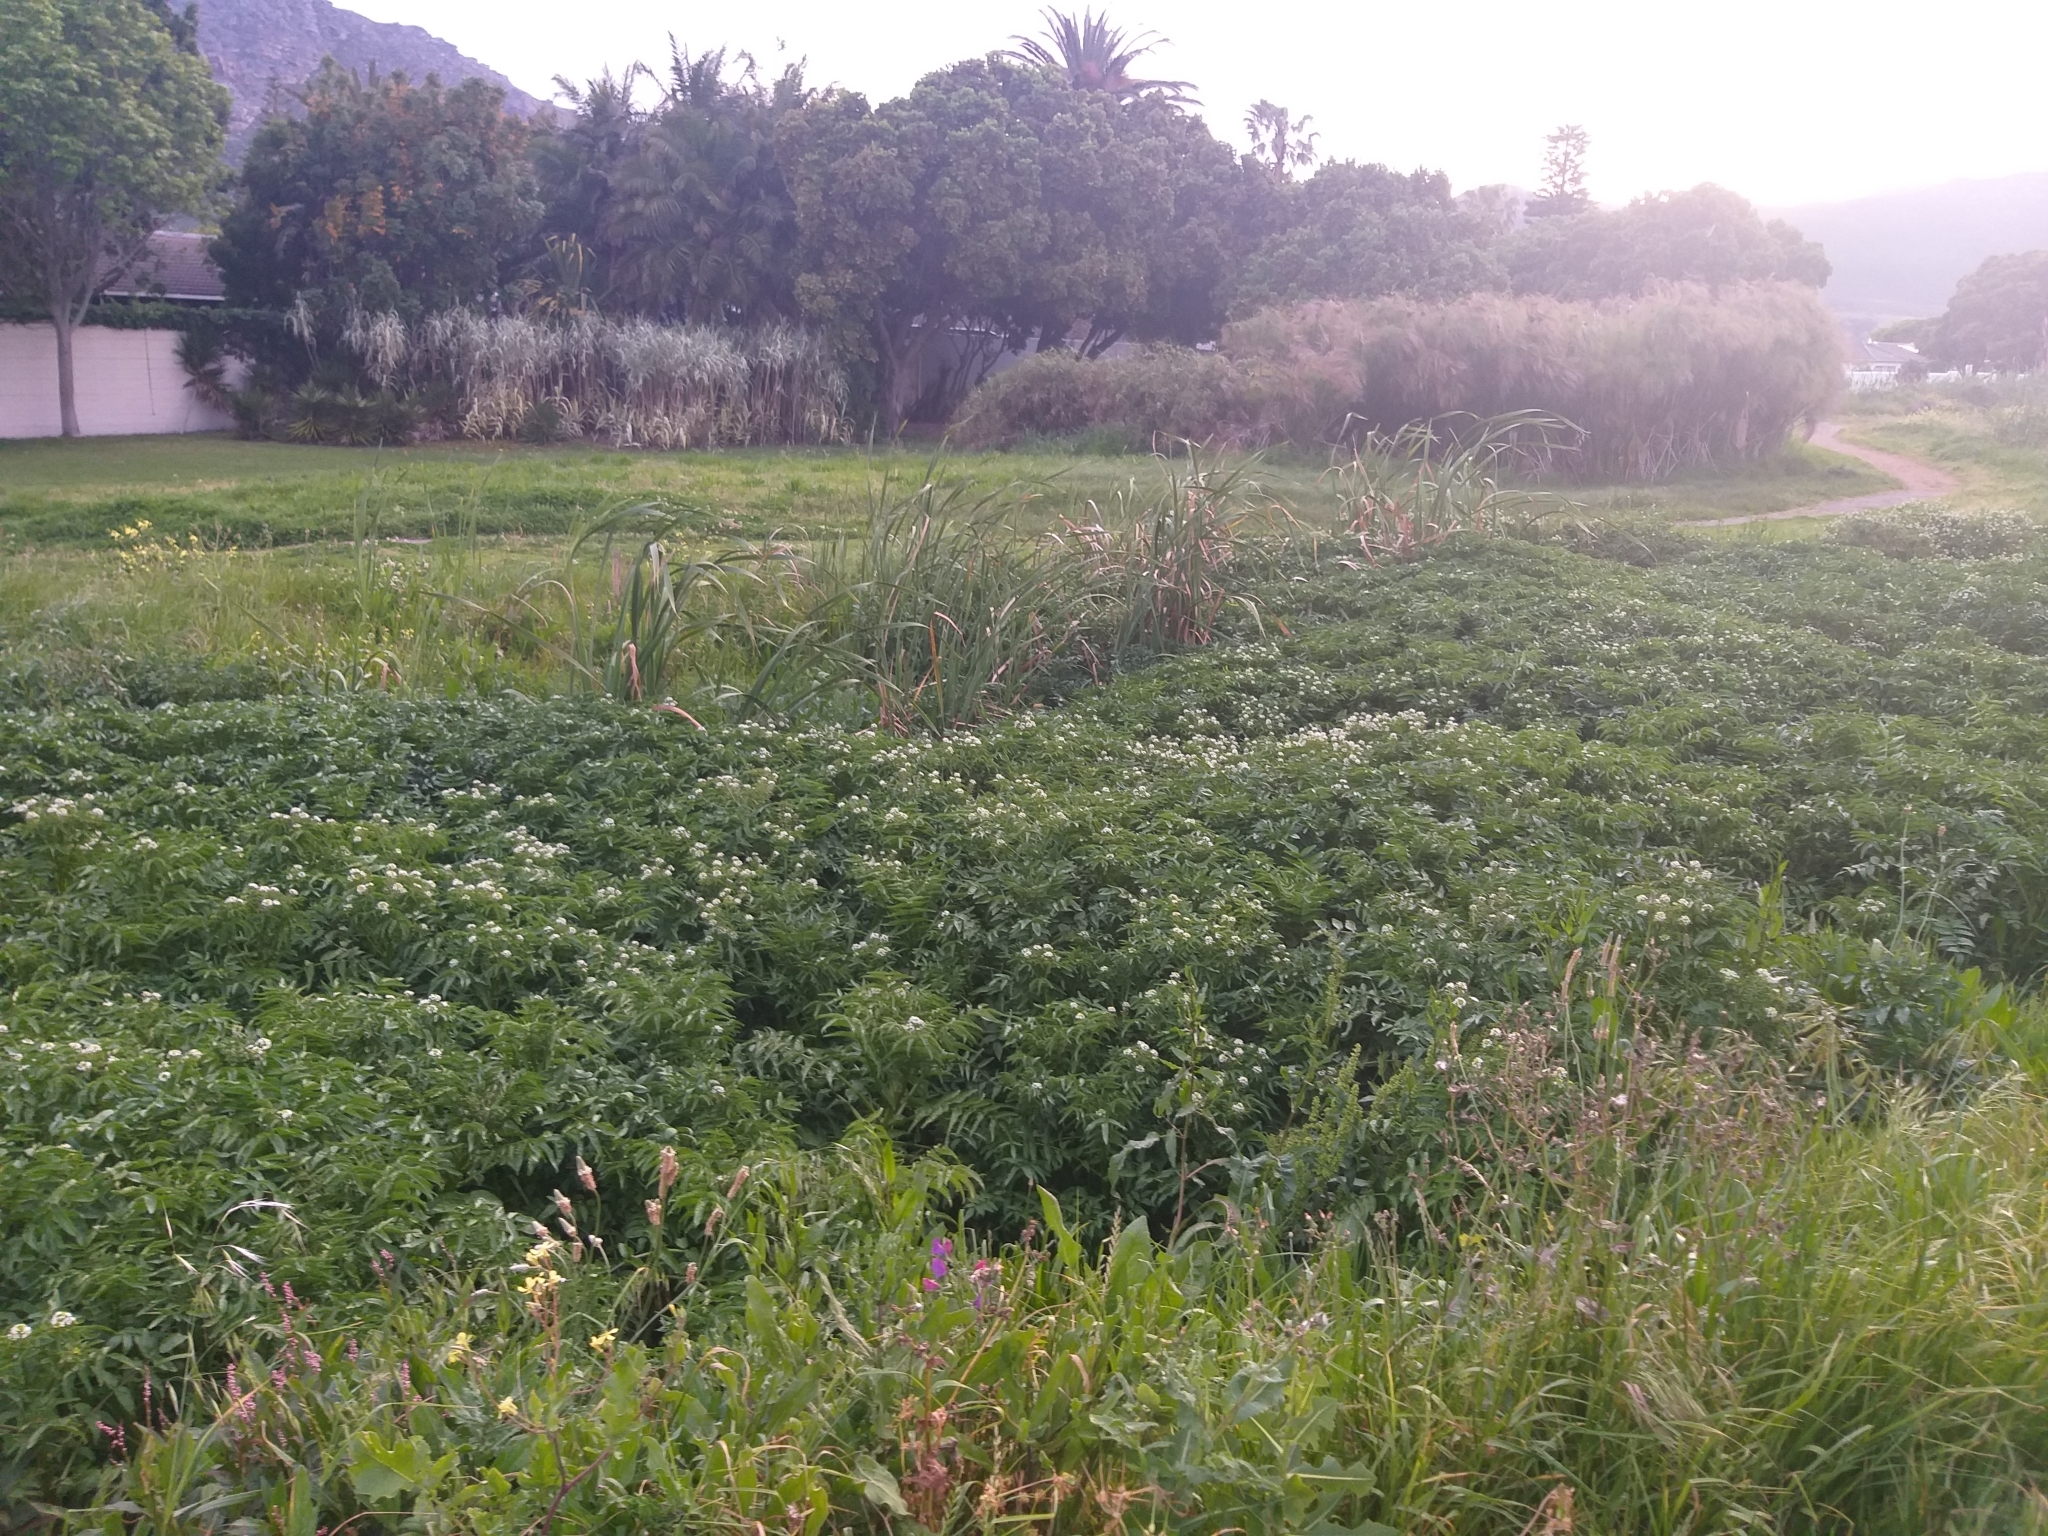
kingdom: Plantae
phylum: Tracheophyta
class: Magnoliopsida
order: Brassicales
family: Brassicaceae
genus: Nasturtium
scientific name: Nasturtium officinale
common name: Watercress
